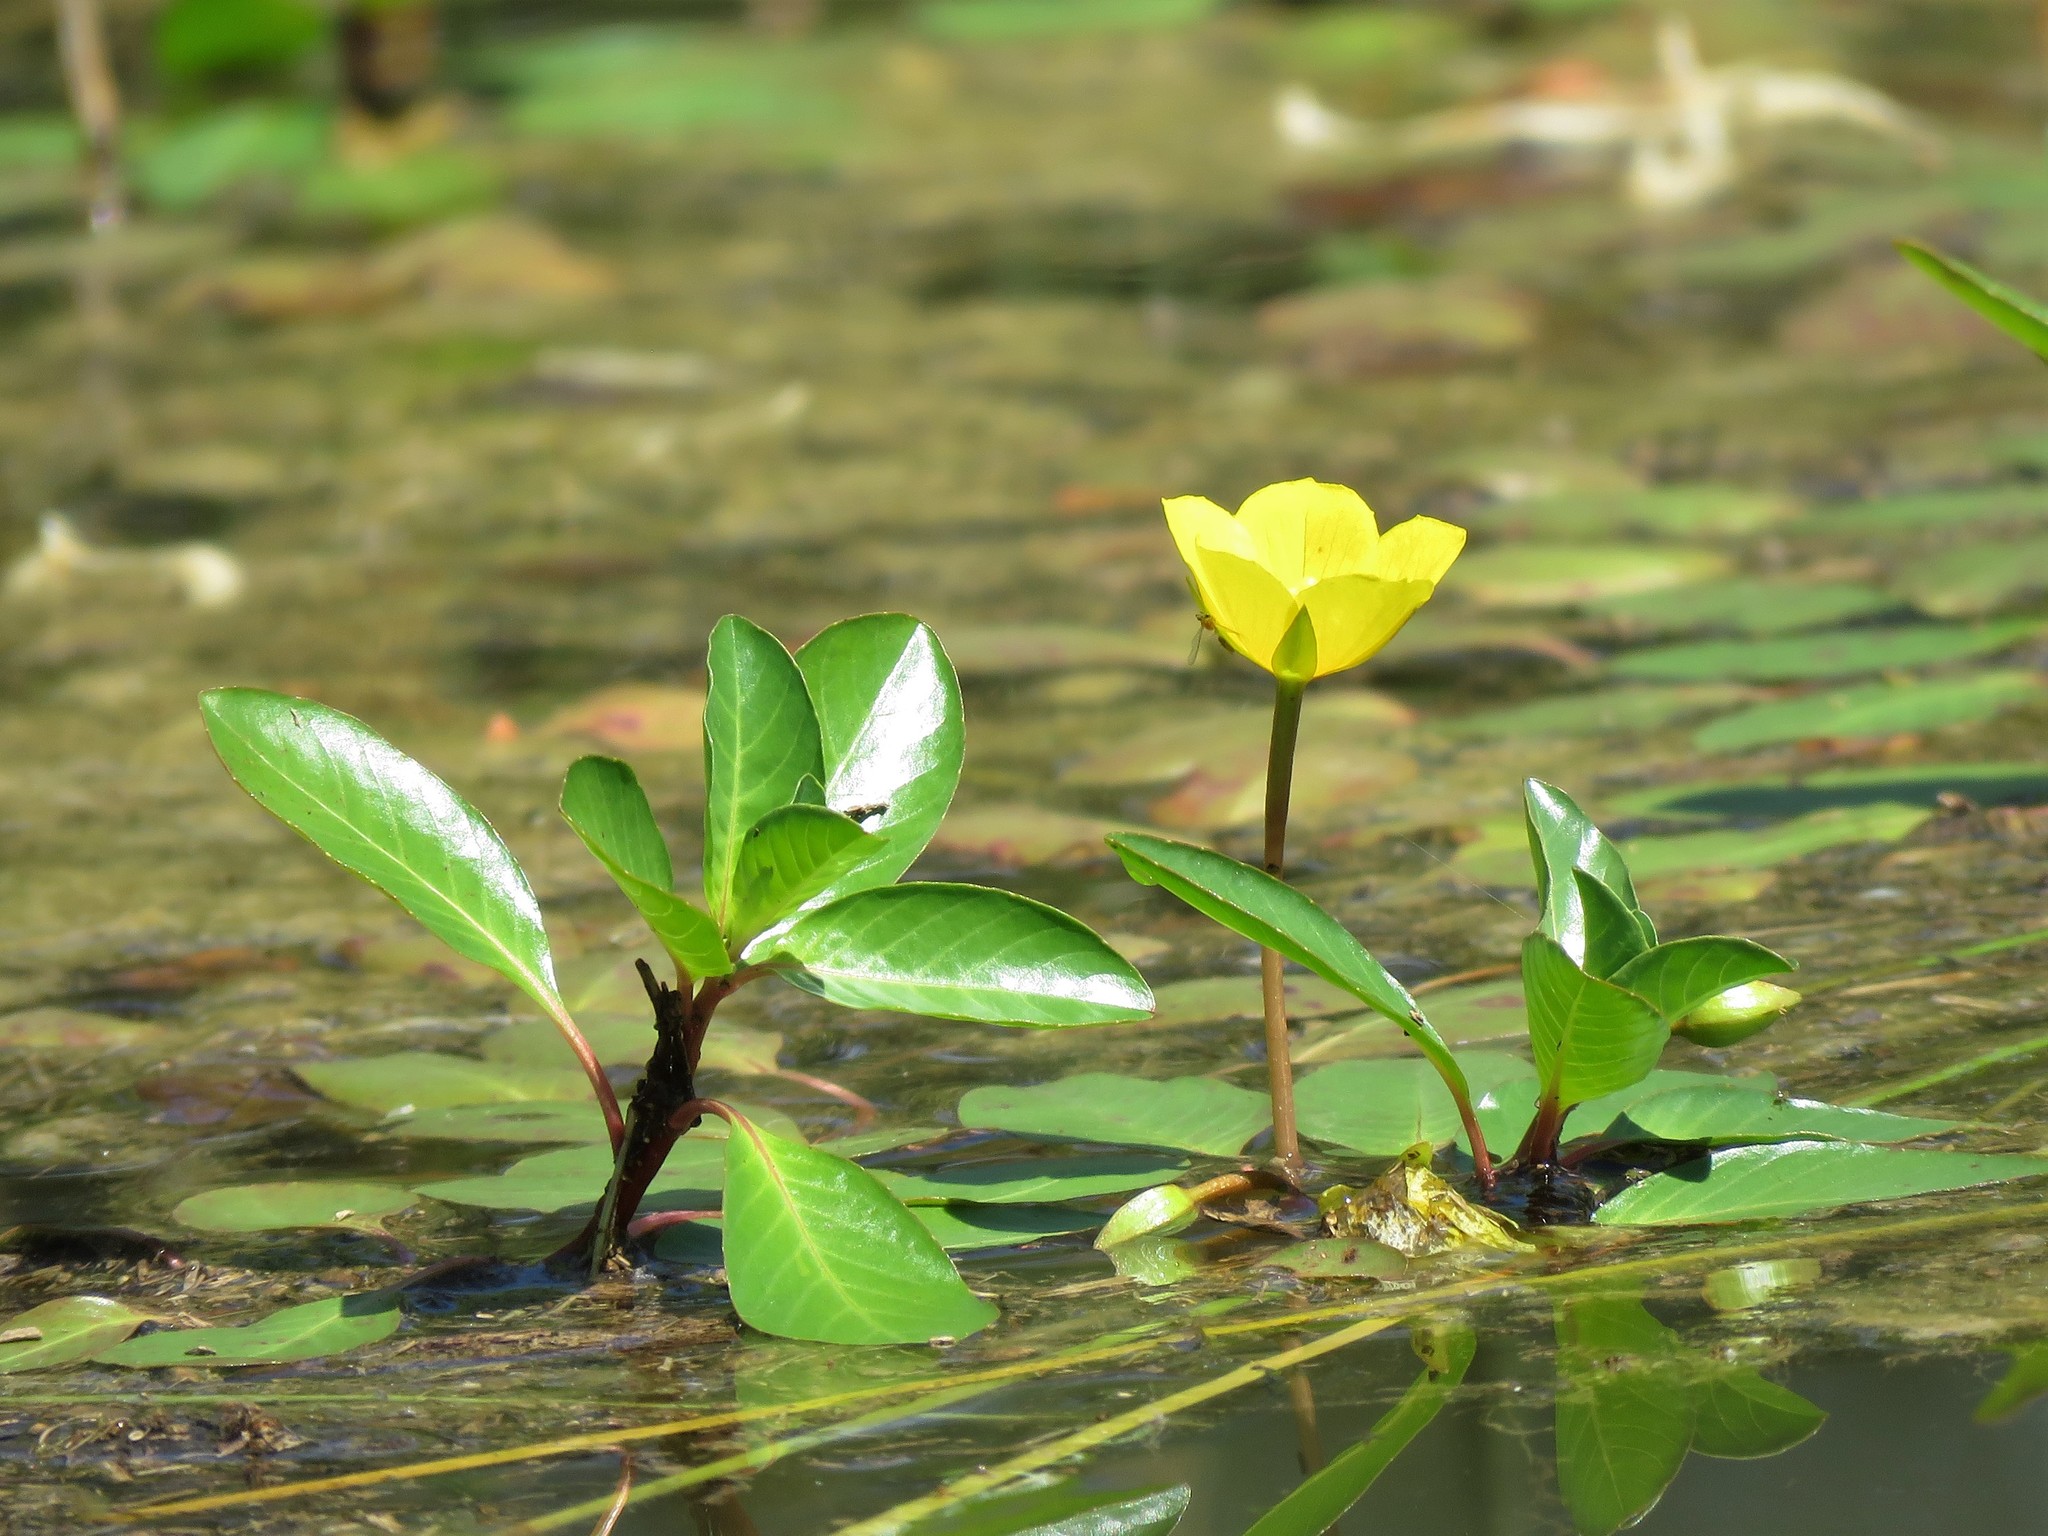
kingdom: Plantae
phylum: Tracheophyta
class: Magnoliopsida
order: Myrtales
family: Onagraceae
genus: Ludwigia
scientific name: Ludwigia peploides
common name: Floating primrose-willow
